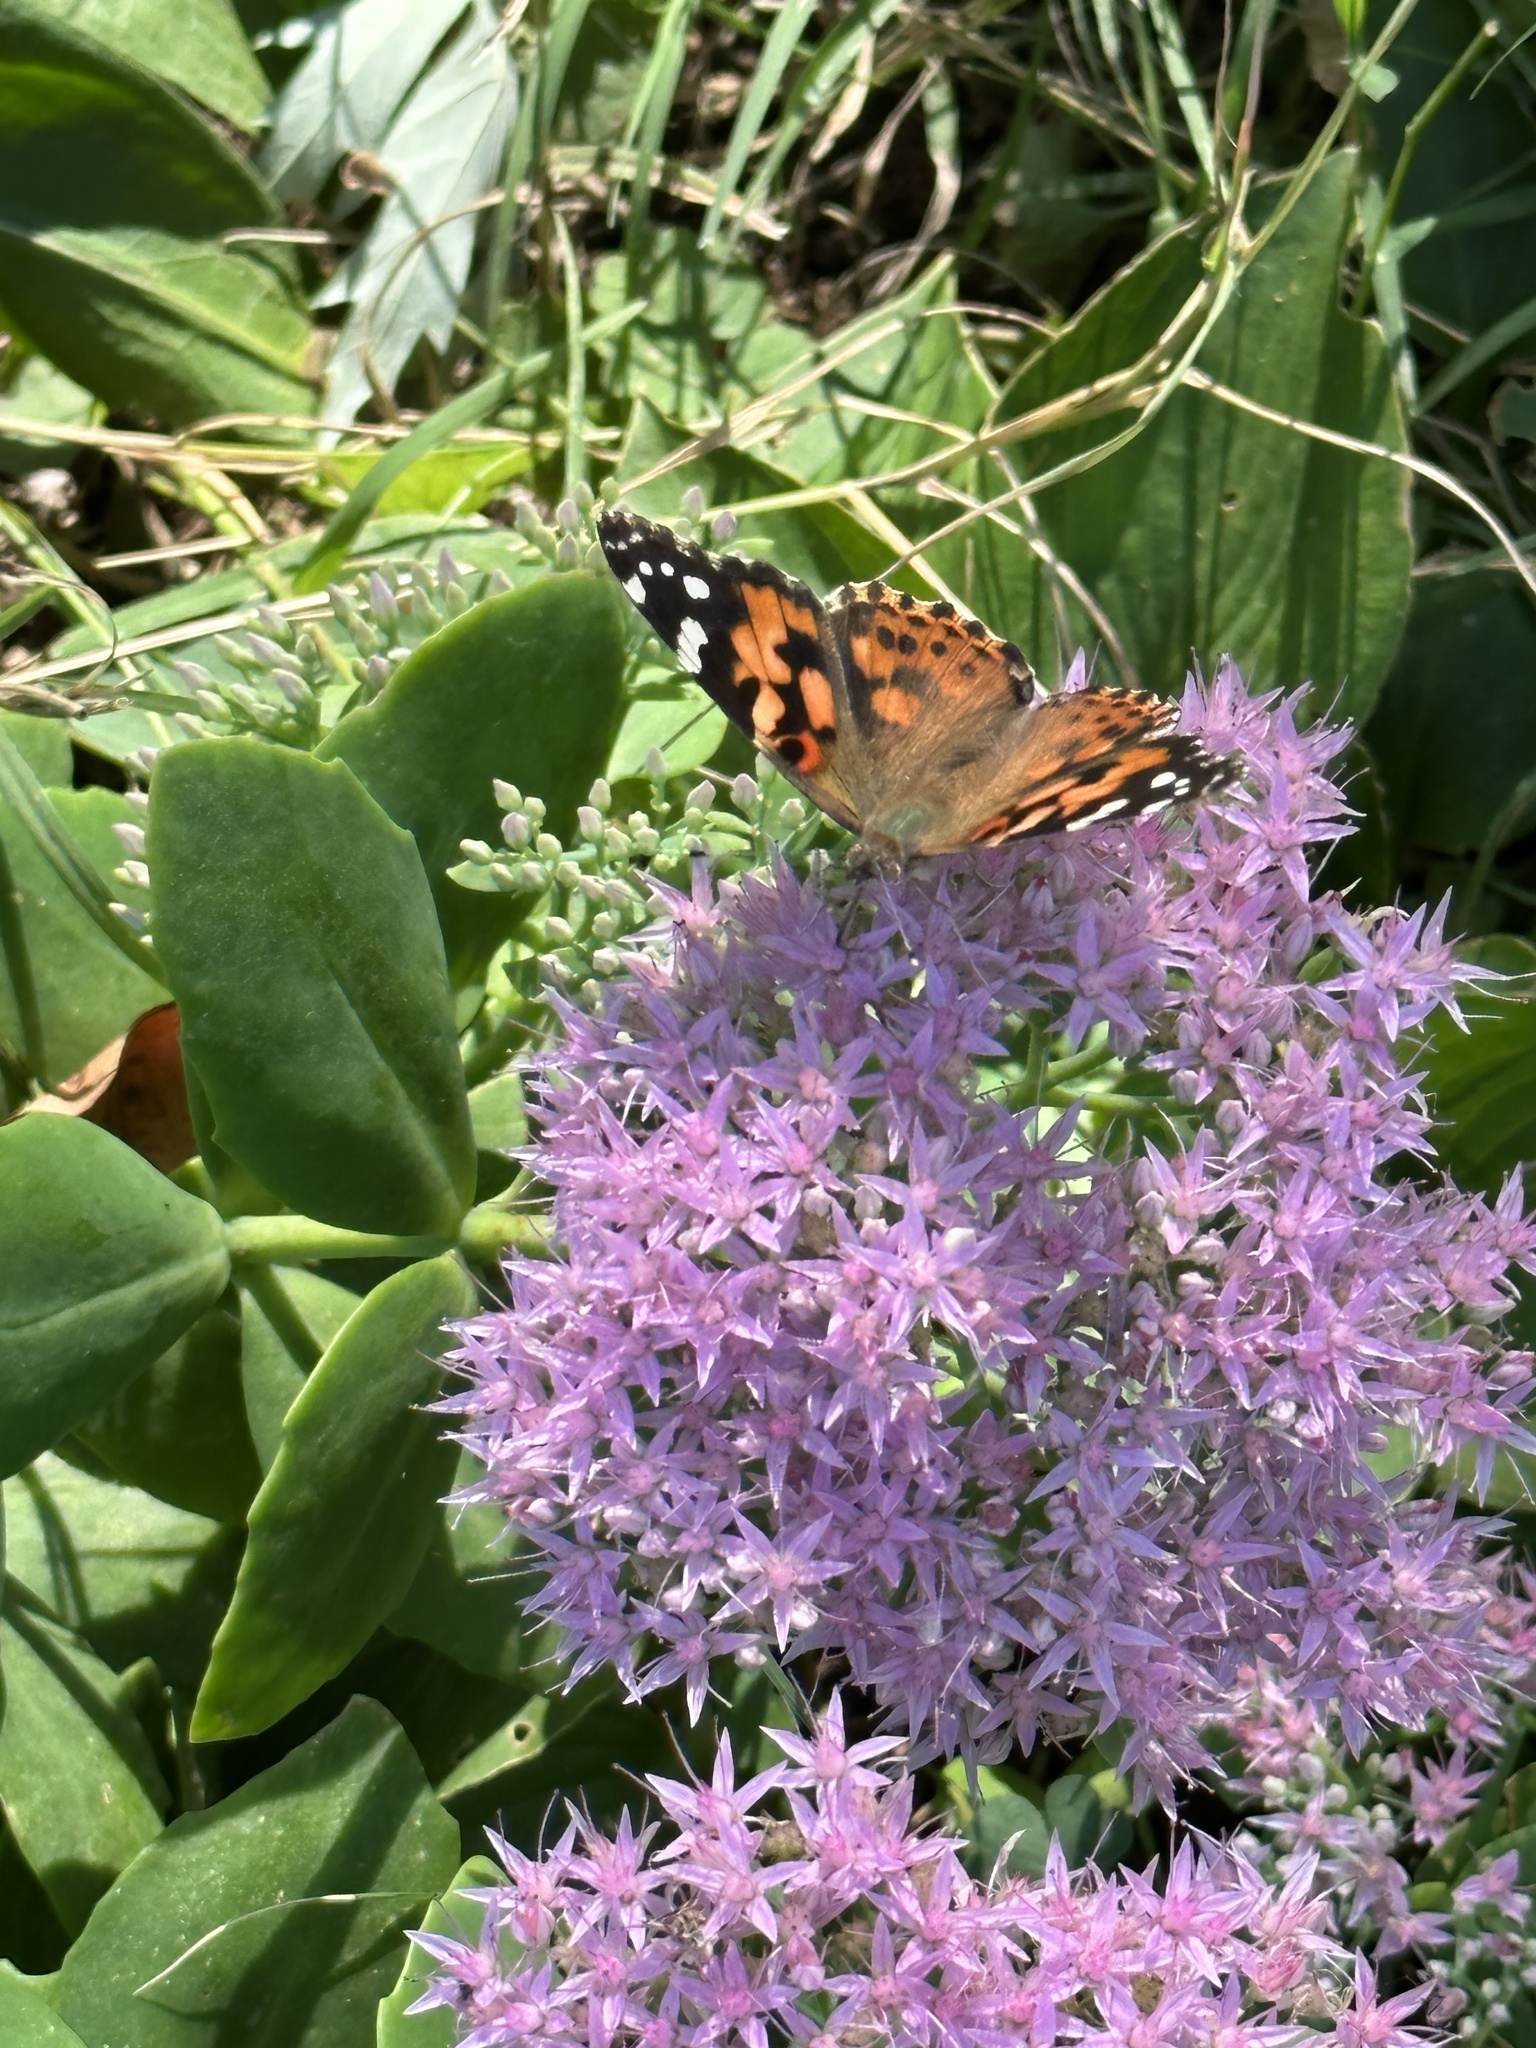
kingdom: Animalia
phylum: Arthropoda
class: Insecta
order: Lepidoptera
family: Nymphalidae
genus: Vanessa
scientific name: Vanessa cardui
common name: Painted lady
